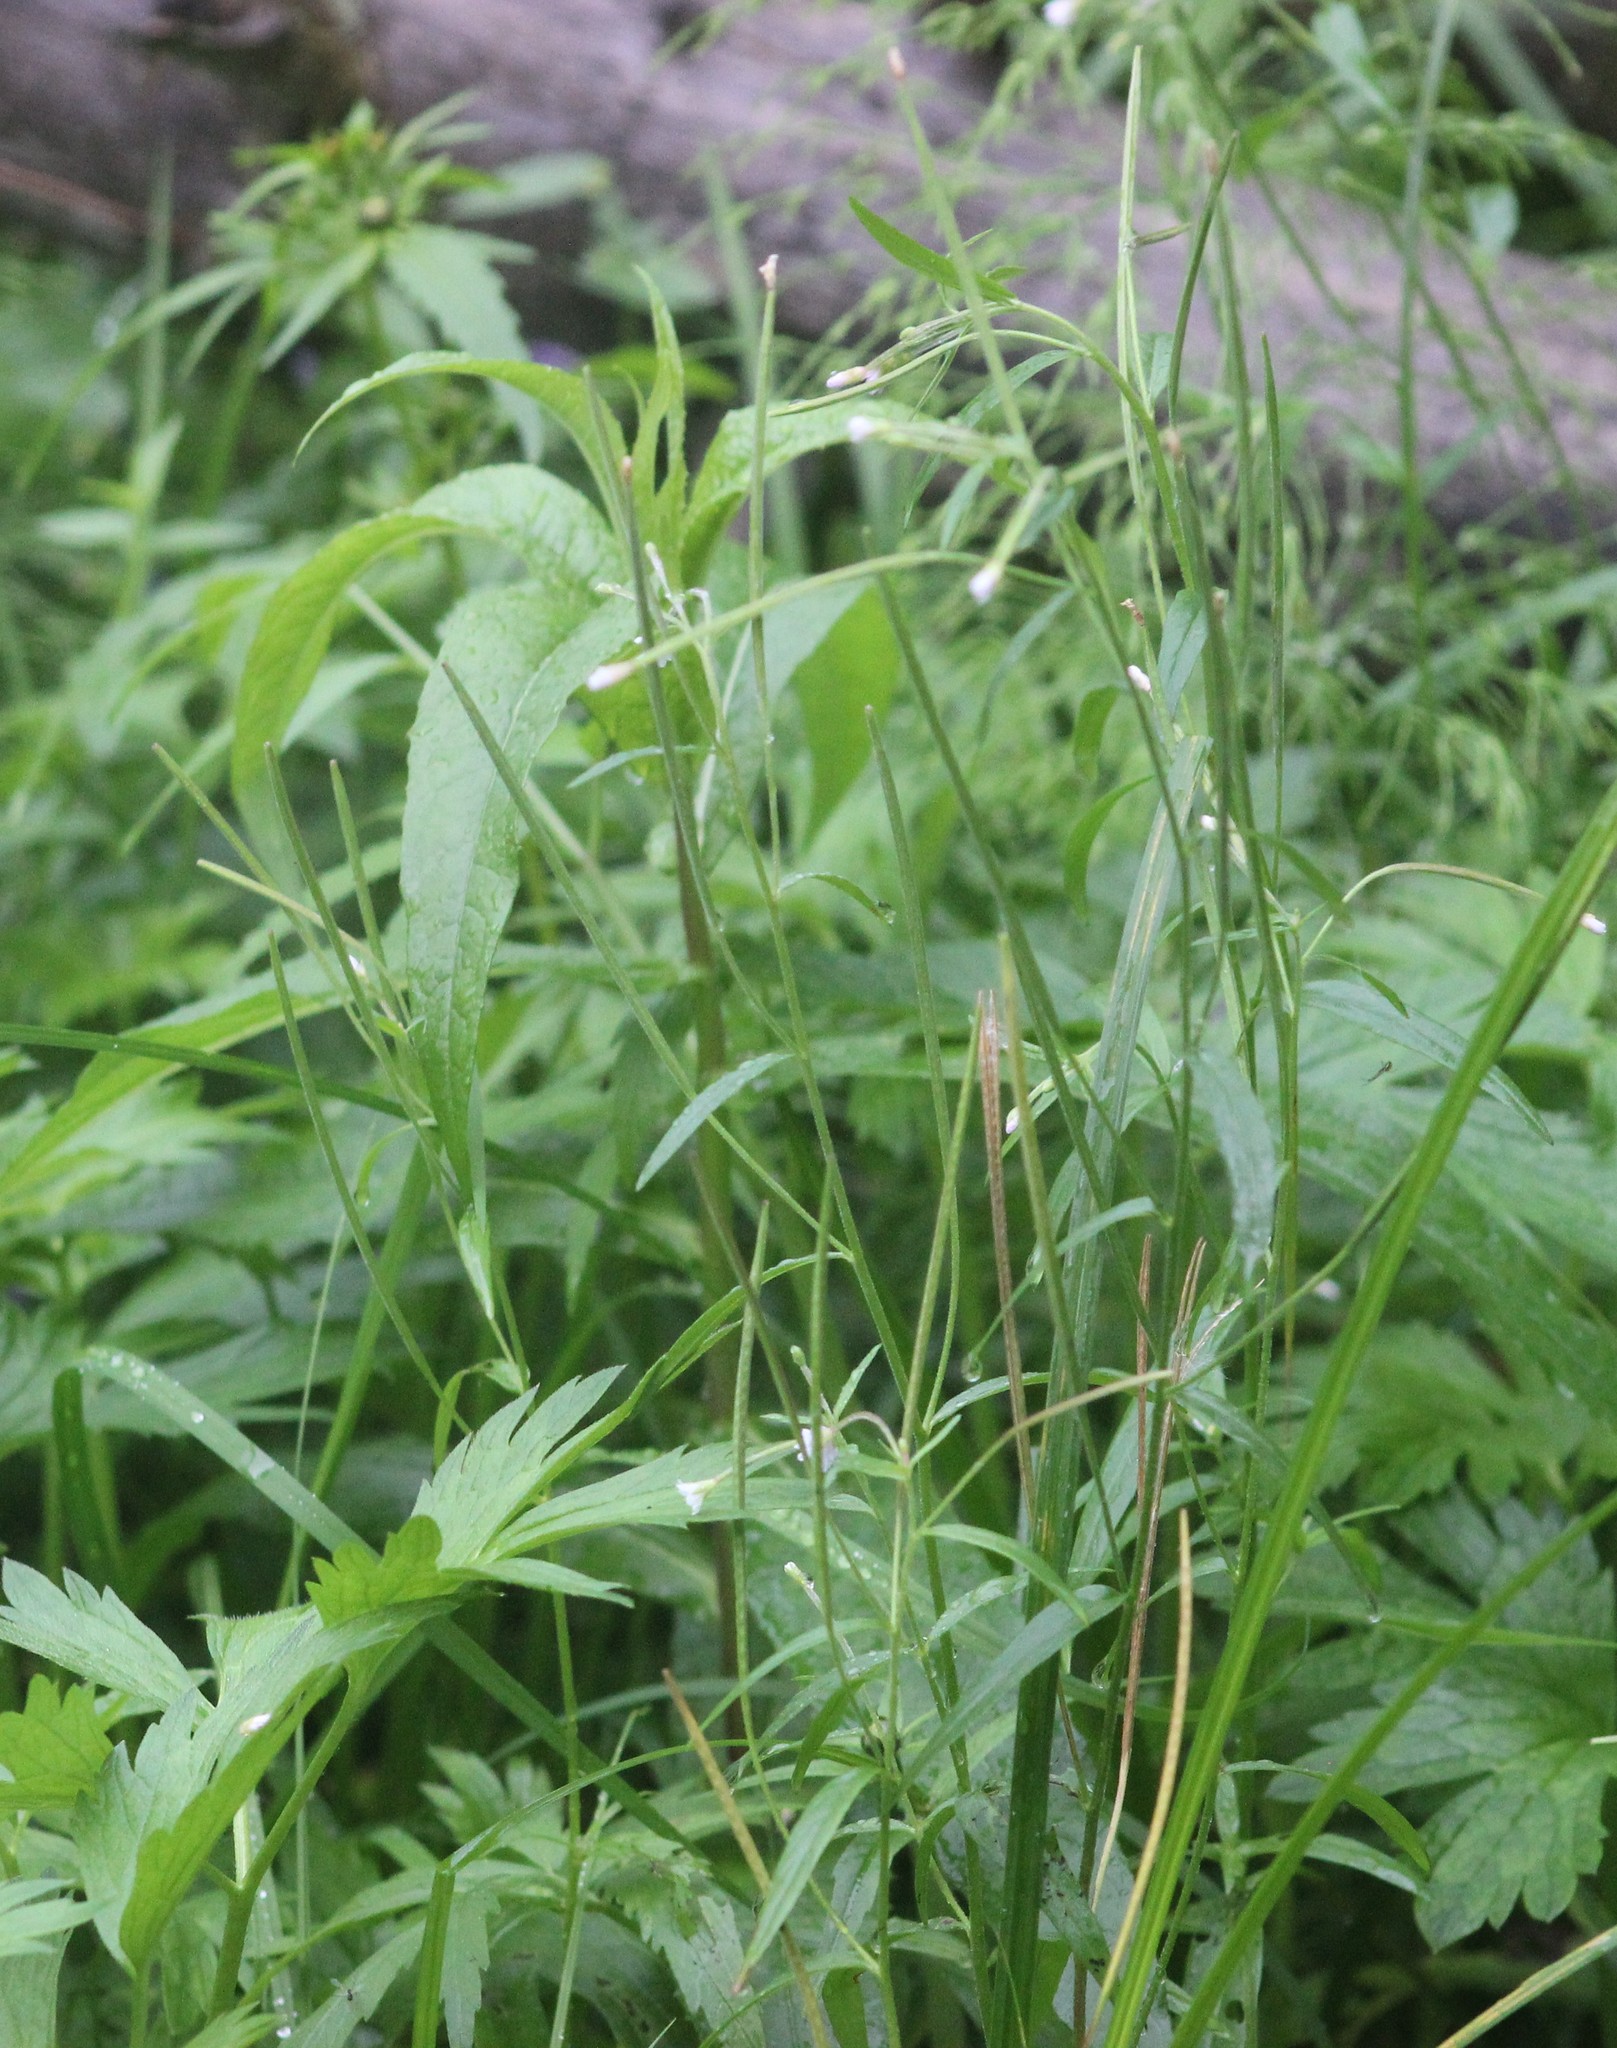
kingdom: Plantae
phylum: Tracheophyta
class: Magnoliopsida
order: Myrtales
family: Onagraceae
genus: Epilobium
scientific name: Epilobium palustre
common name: Marsh willowherb
